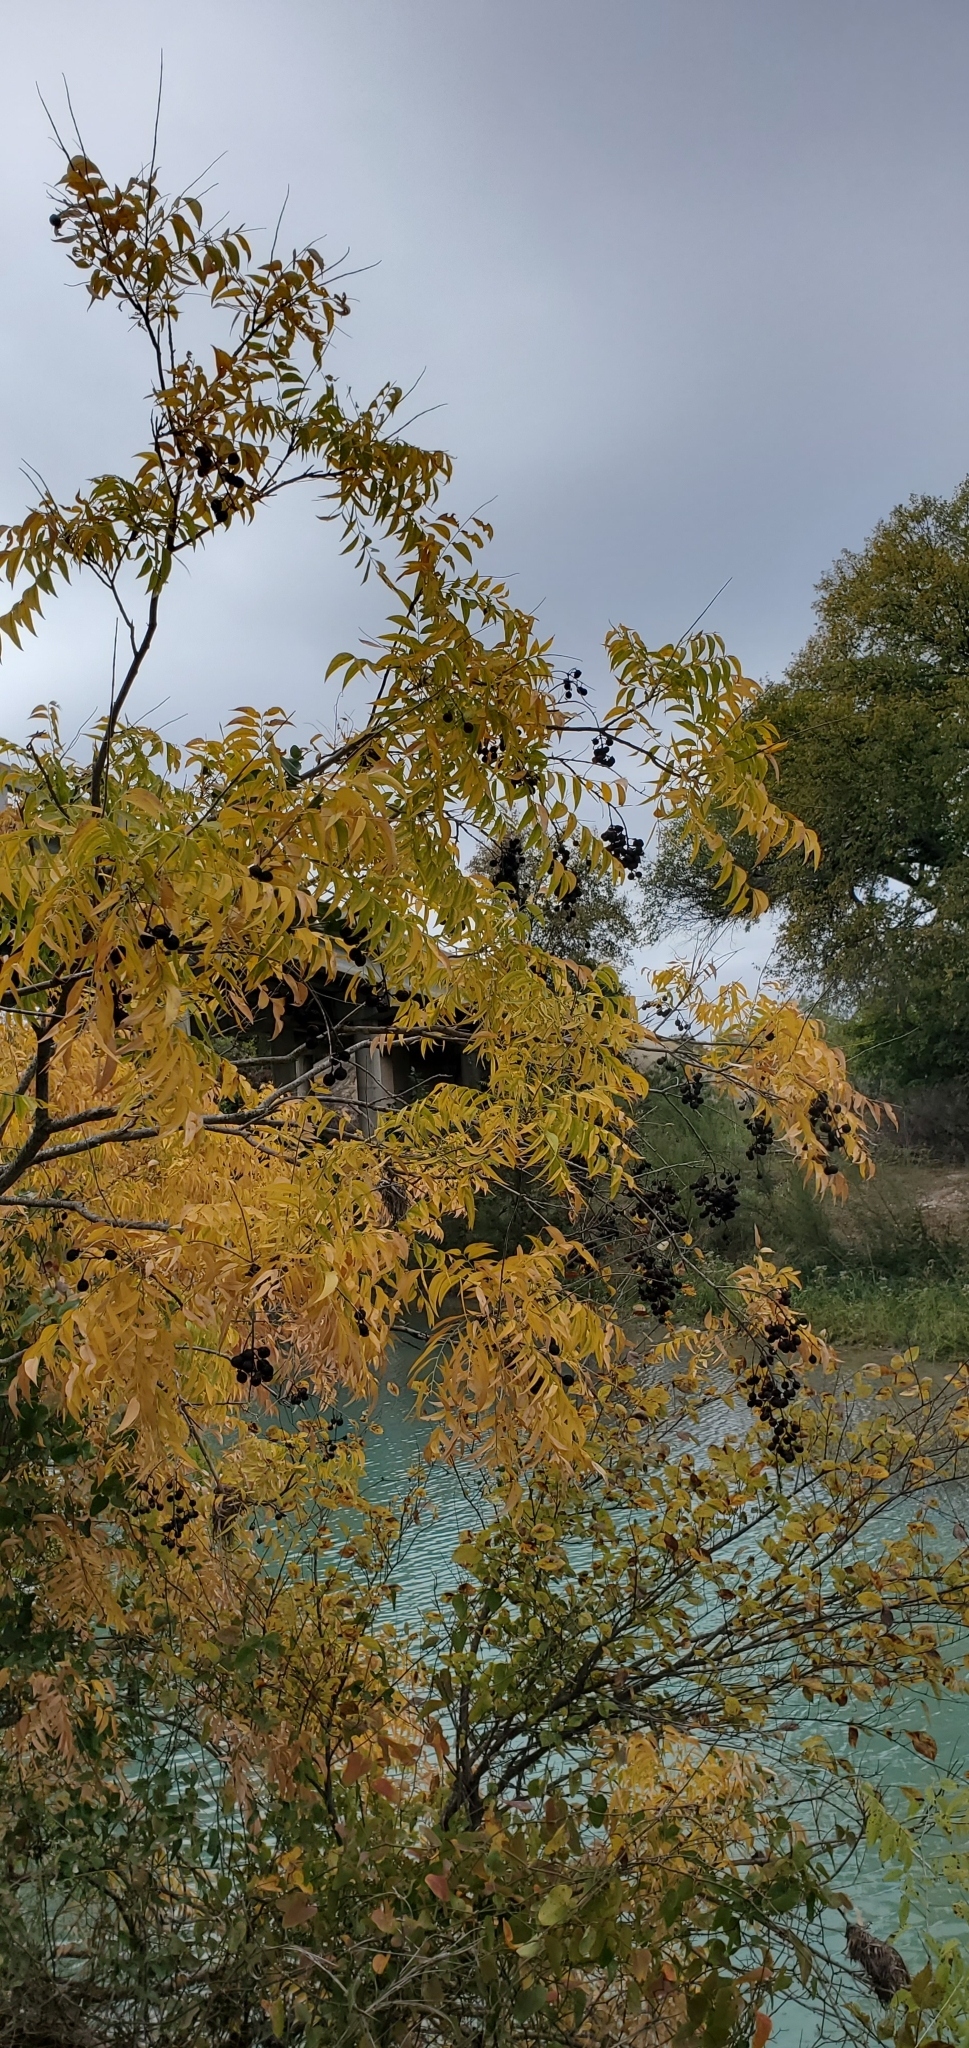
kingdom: Plantae
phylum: Tracheophyta
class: Magnoliopsida
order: Sapindales
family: Sapindaceae
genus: Sapindus
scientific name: Sapindus drummondii
